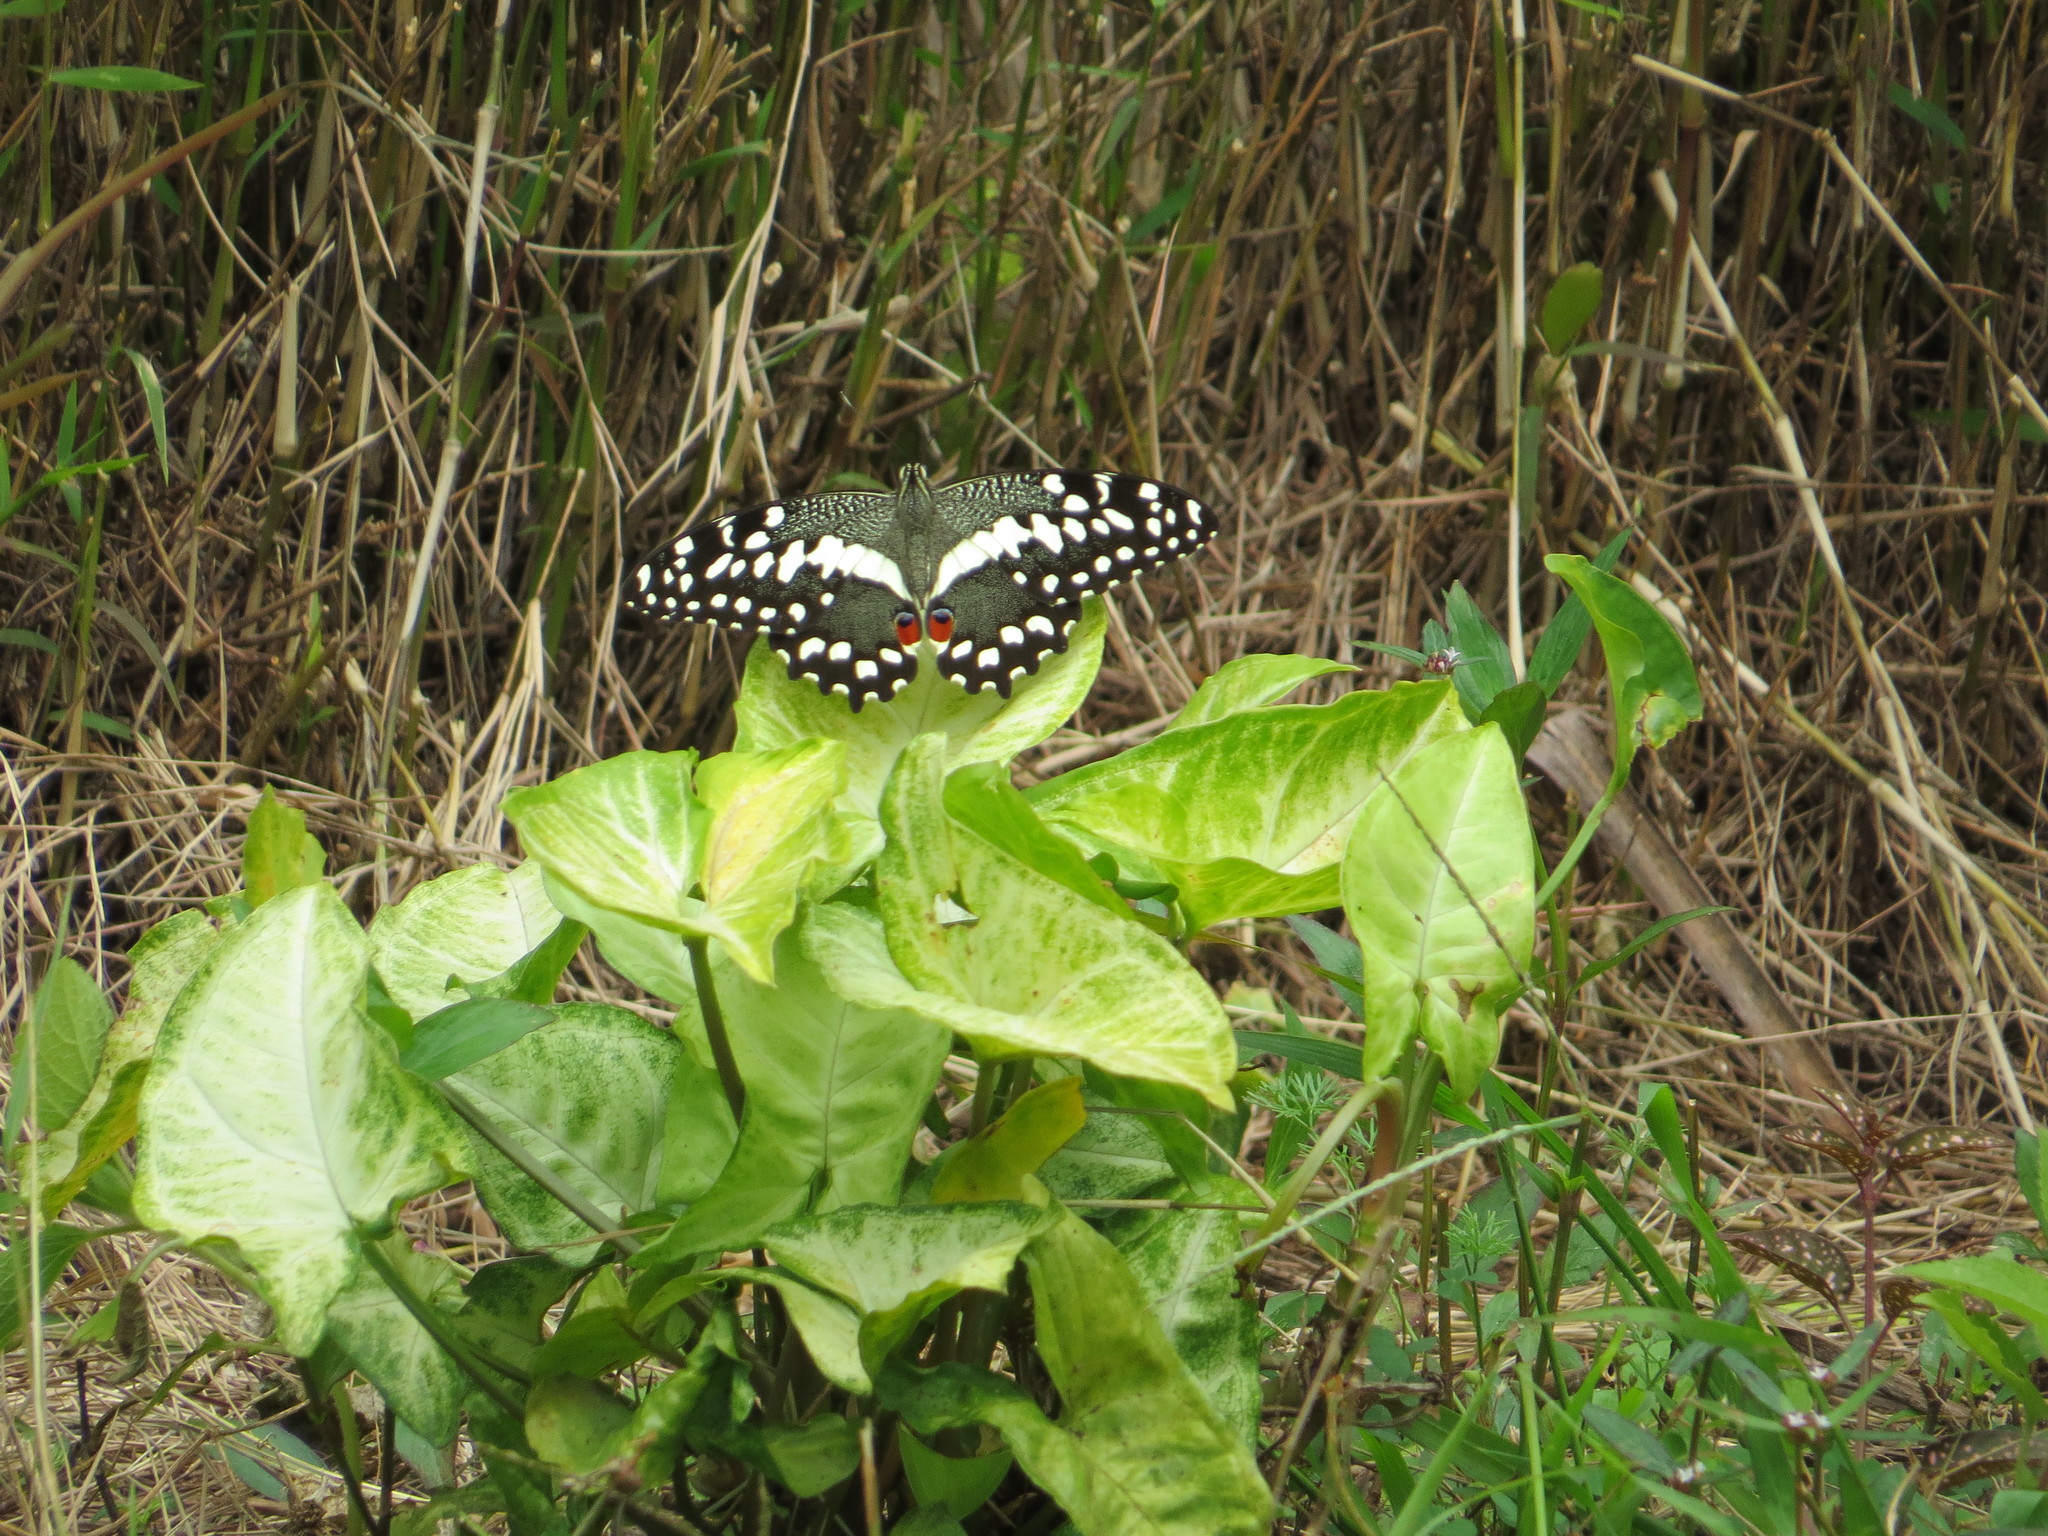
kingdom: Animalia
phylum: Arthropoda
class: Insecta
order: Lepidoptera
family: Papilionidae
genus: Papilio
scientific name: Papilio demodocus
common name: Christmas butterfly
